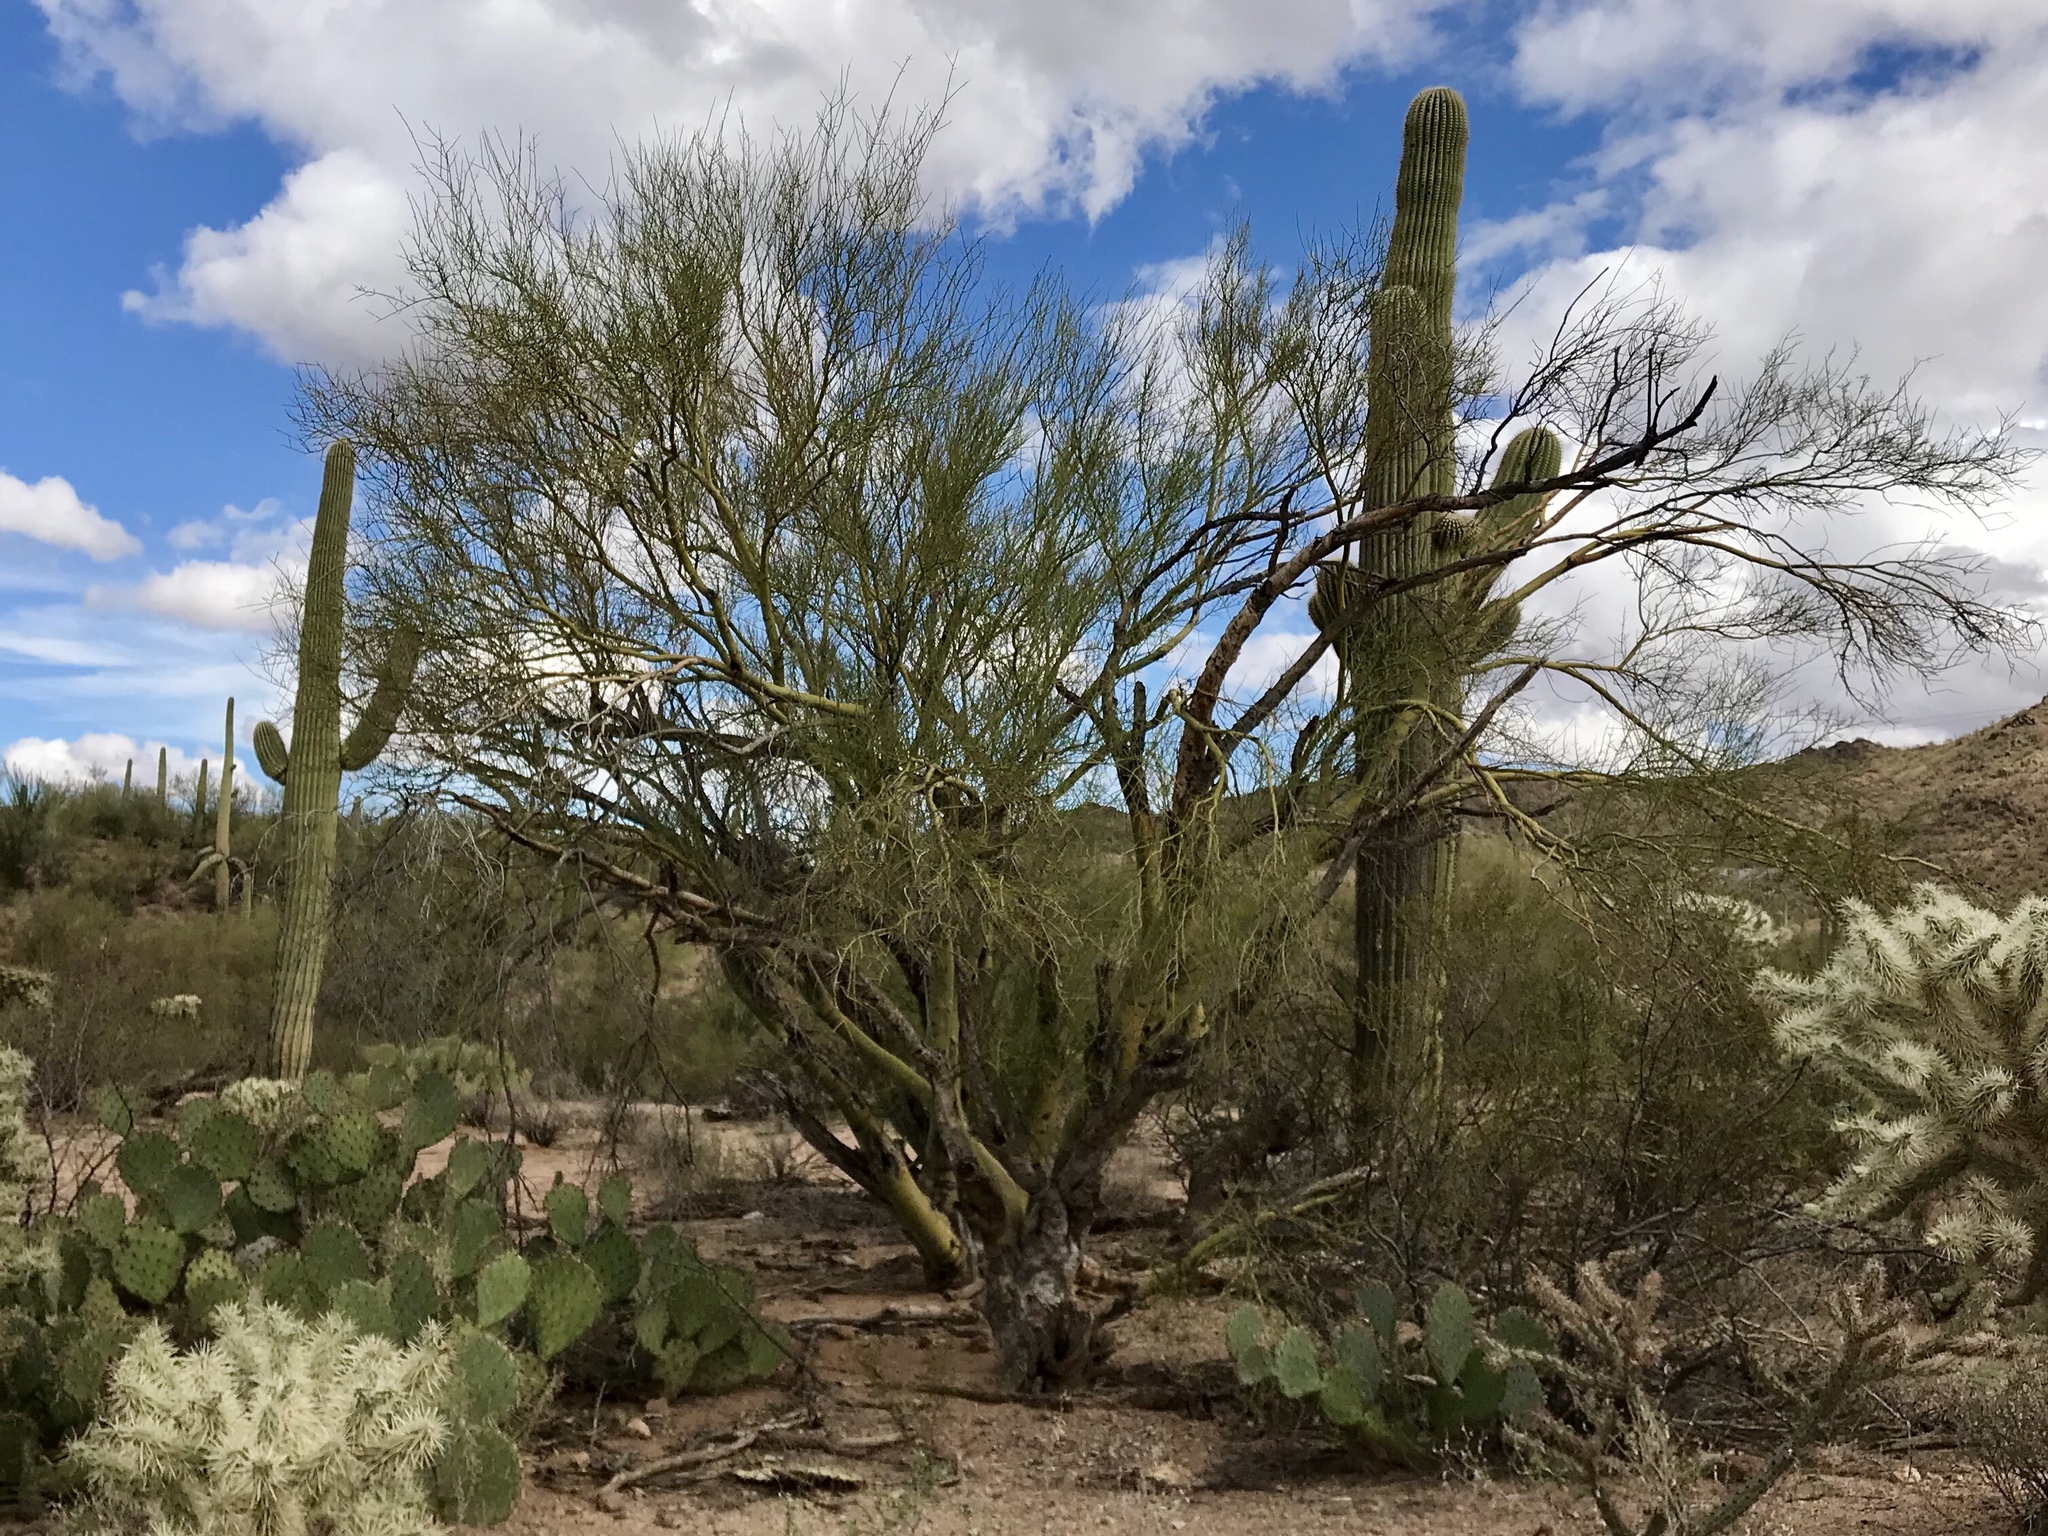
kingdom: Plantae
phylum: Tracheophyta
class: Magnoliopsida
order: Fabales
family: Fabaceae
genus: Parkinsonia
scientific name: Parkinsonia microphylla
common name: Yellow paloverde
